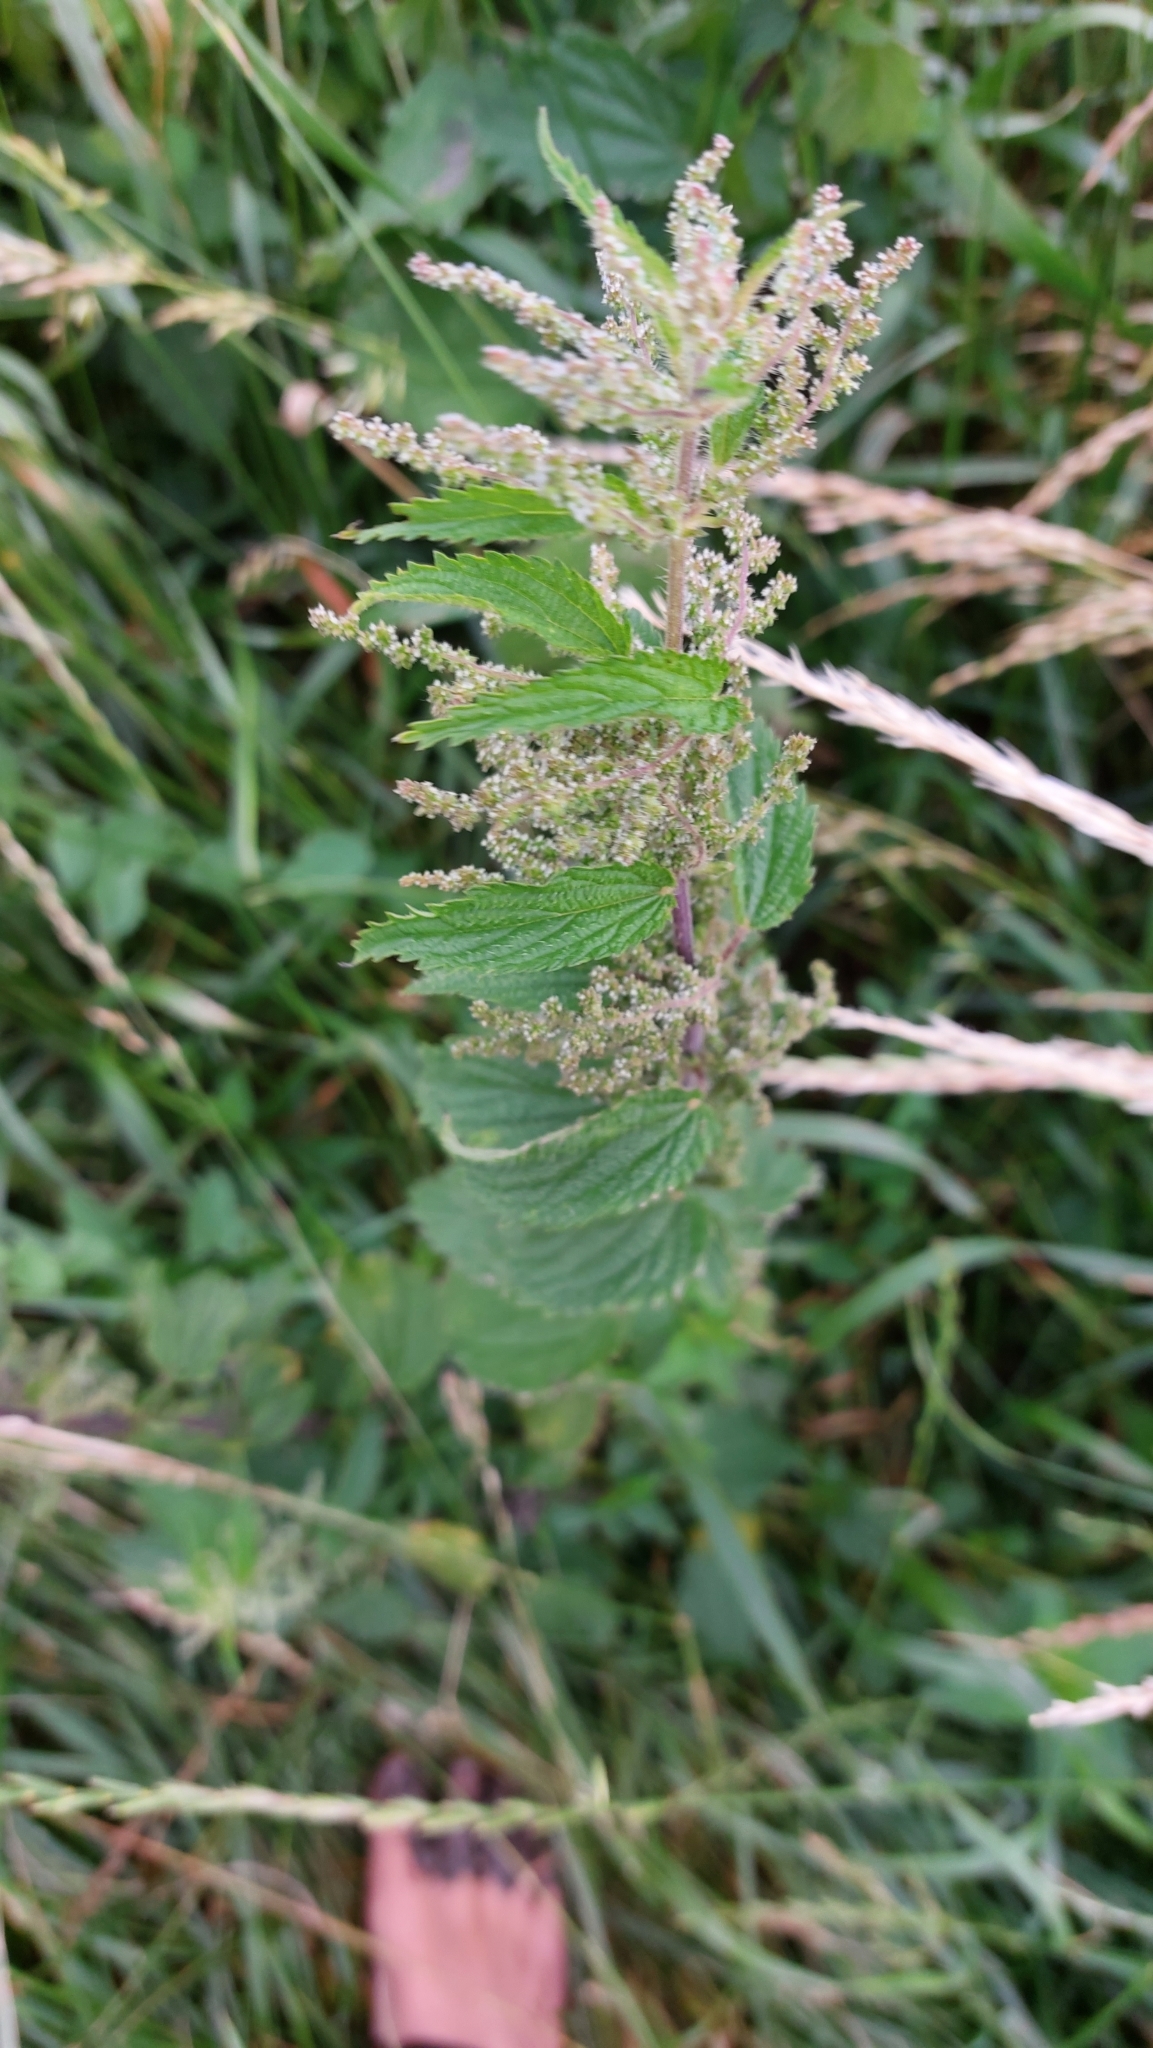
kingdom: Plantae
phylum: Tracheophyta
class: Magnoliopsida
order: Rosales
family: Urticaceae
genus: Urtica
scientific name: Urtica dioica
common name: Common nettle
